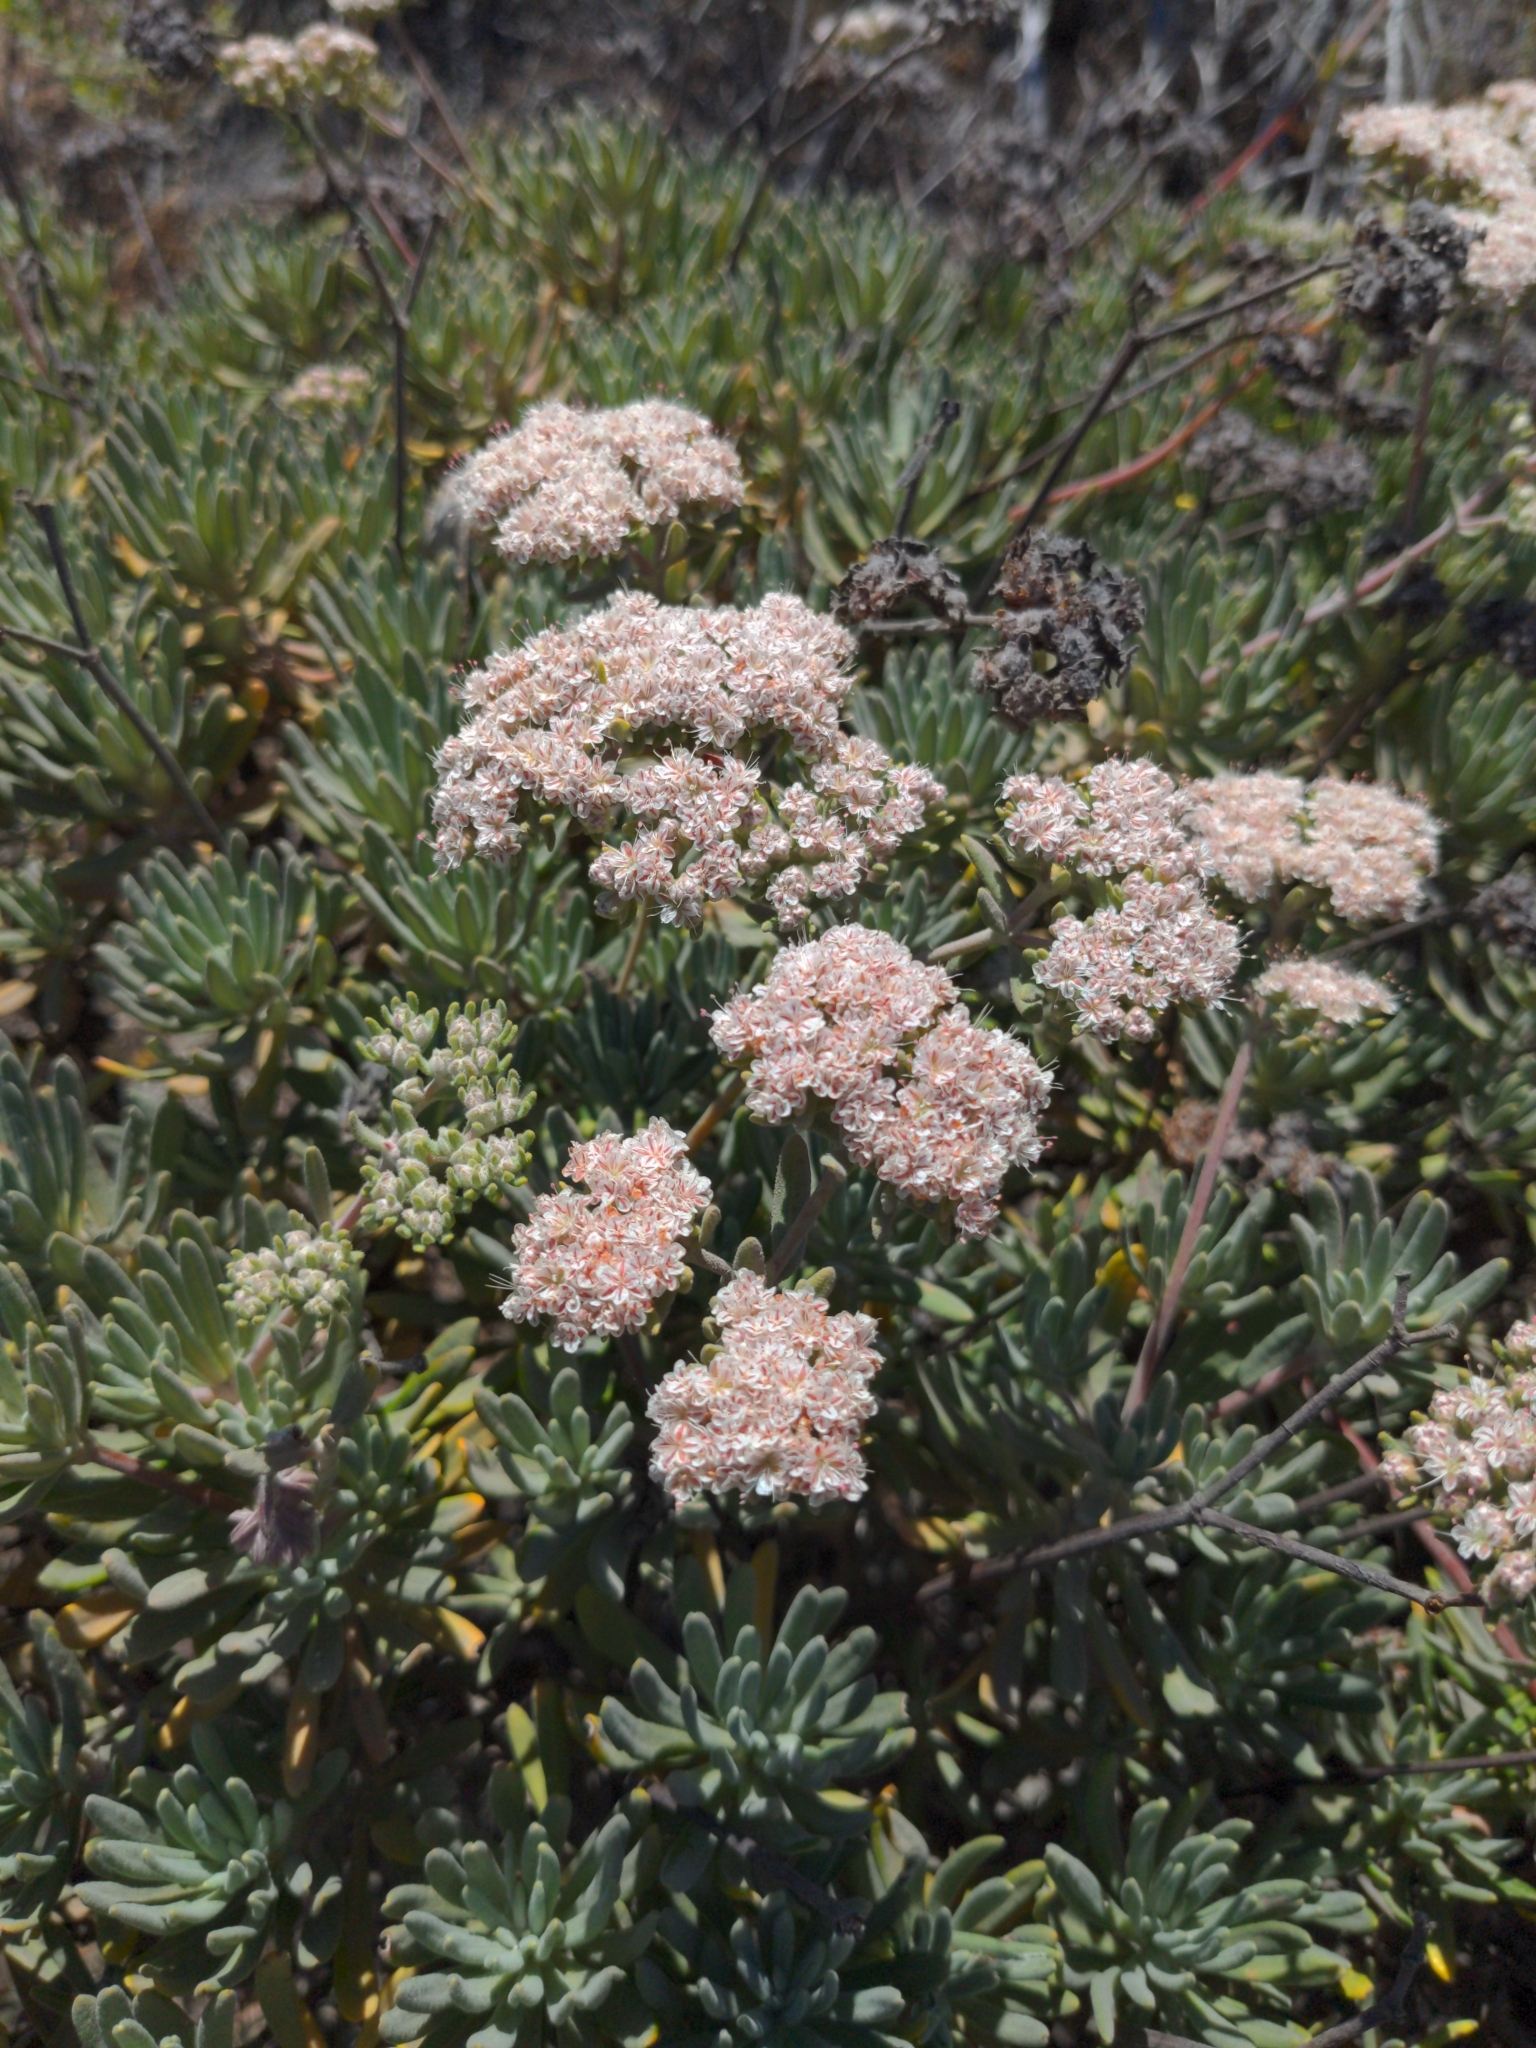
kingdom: Plantae
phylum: Tracheophyta
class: Magnoliopsida
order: Caryophyllales
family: Polygonaceae
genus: Eriogonum
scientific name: Eriogonum arborescens
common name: Island buckwheat
